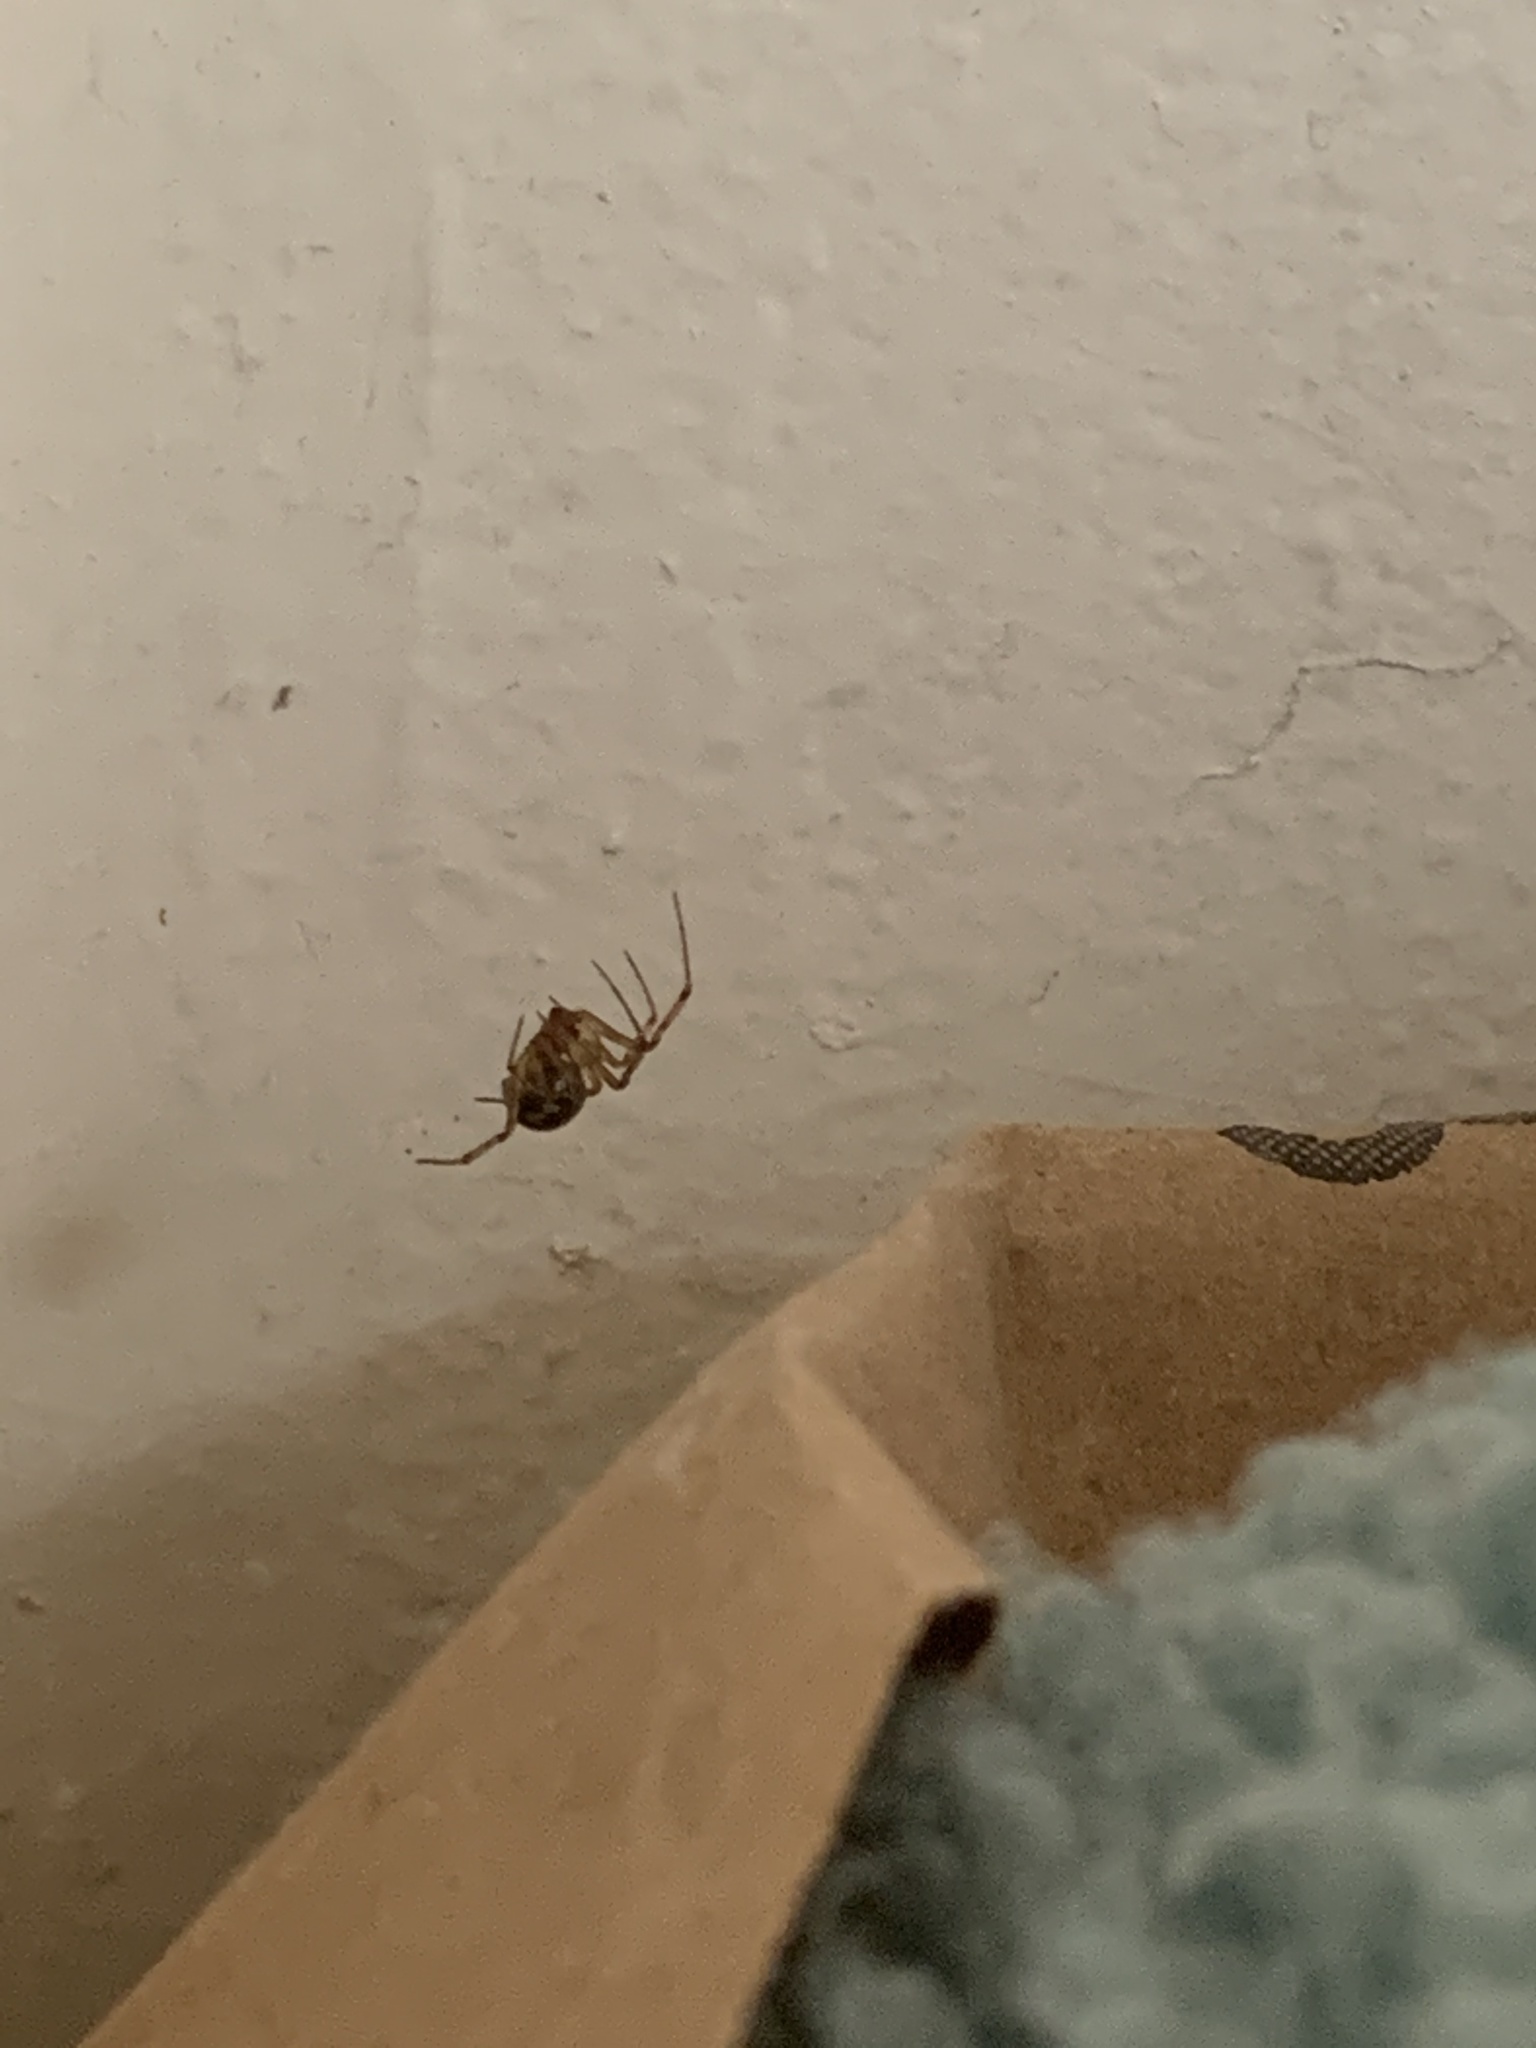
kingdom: Animalia
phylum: Arthropoda
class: Arachnida
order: Araneae
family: Theridiidae
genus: Steatoda
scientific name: Steatoda triangulosa
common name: Triangulate bud spider
